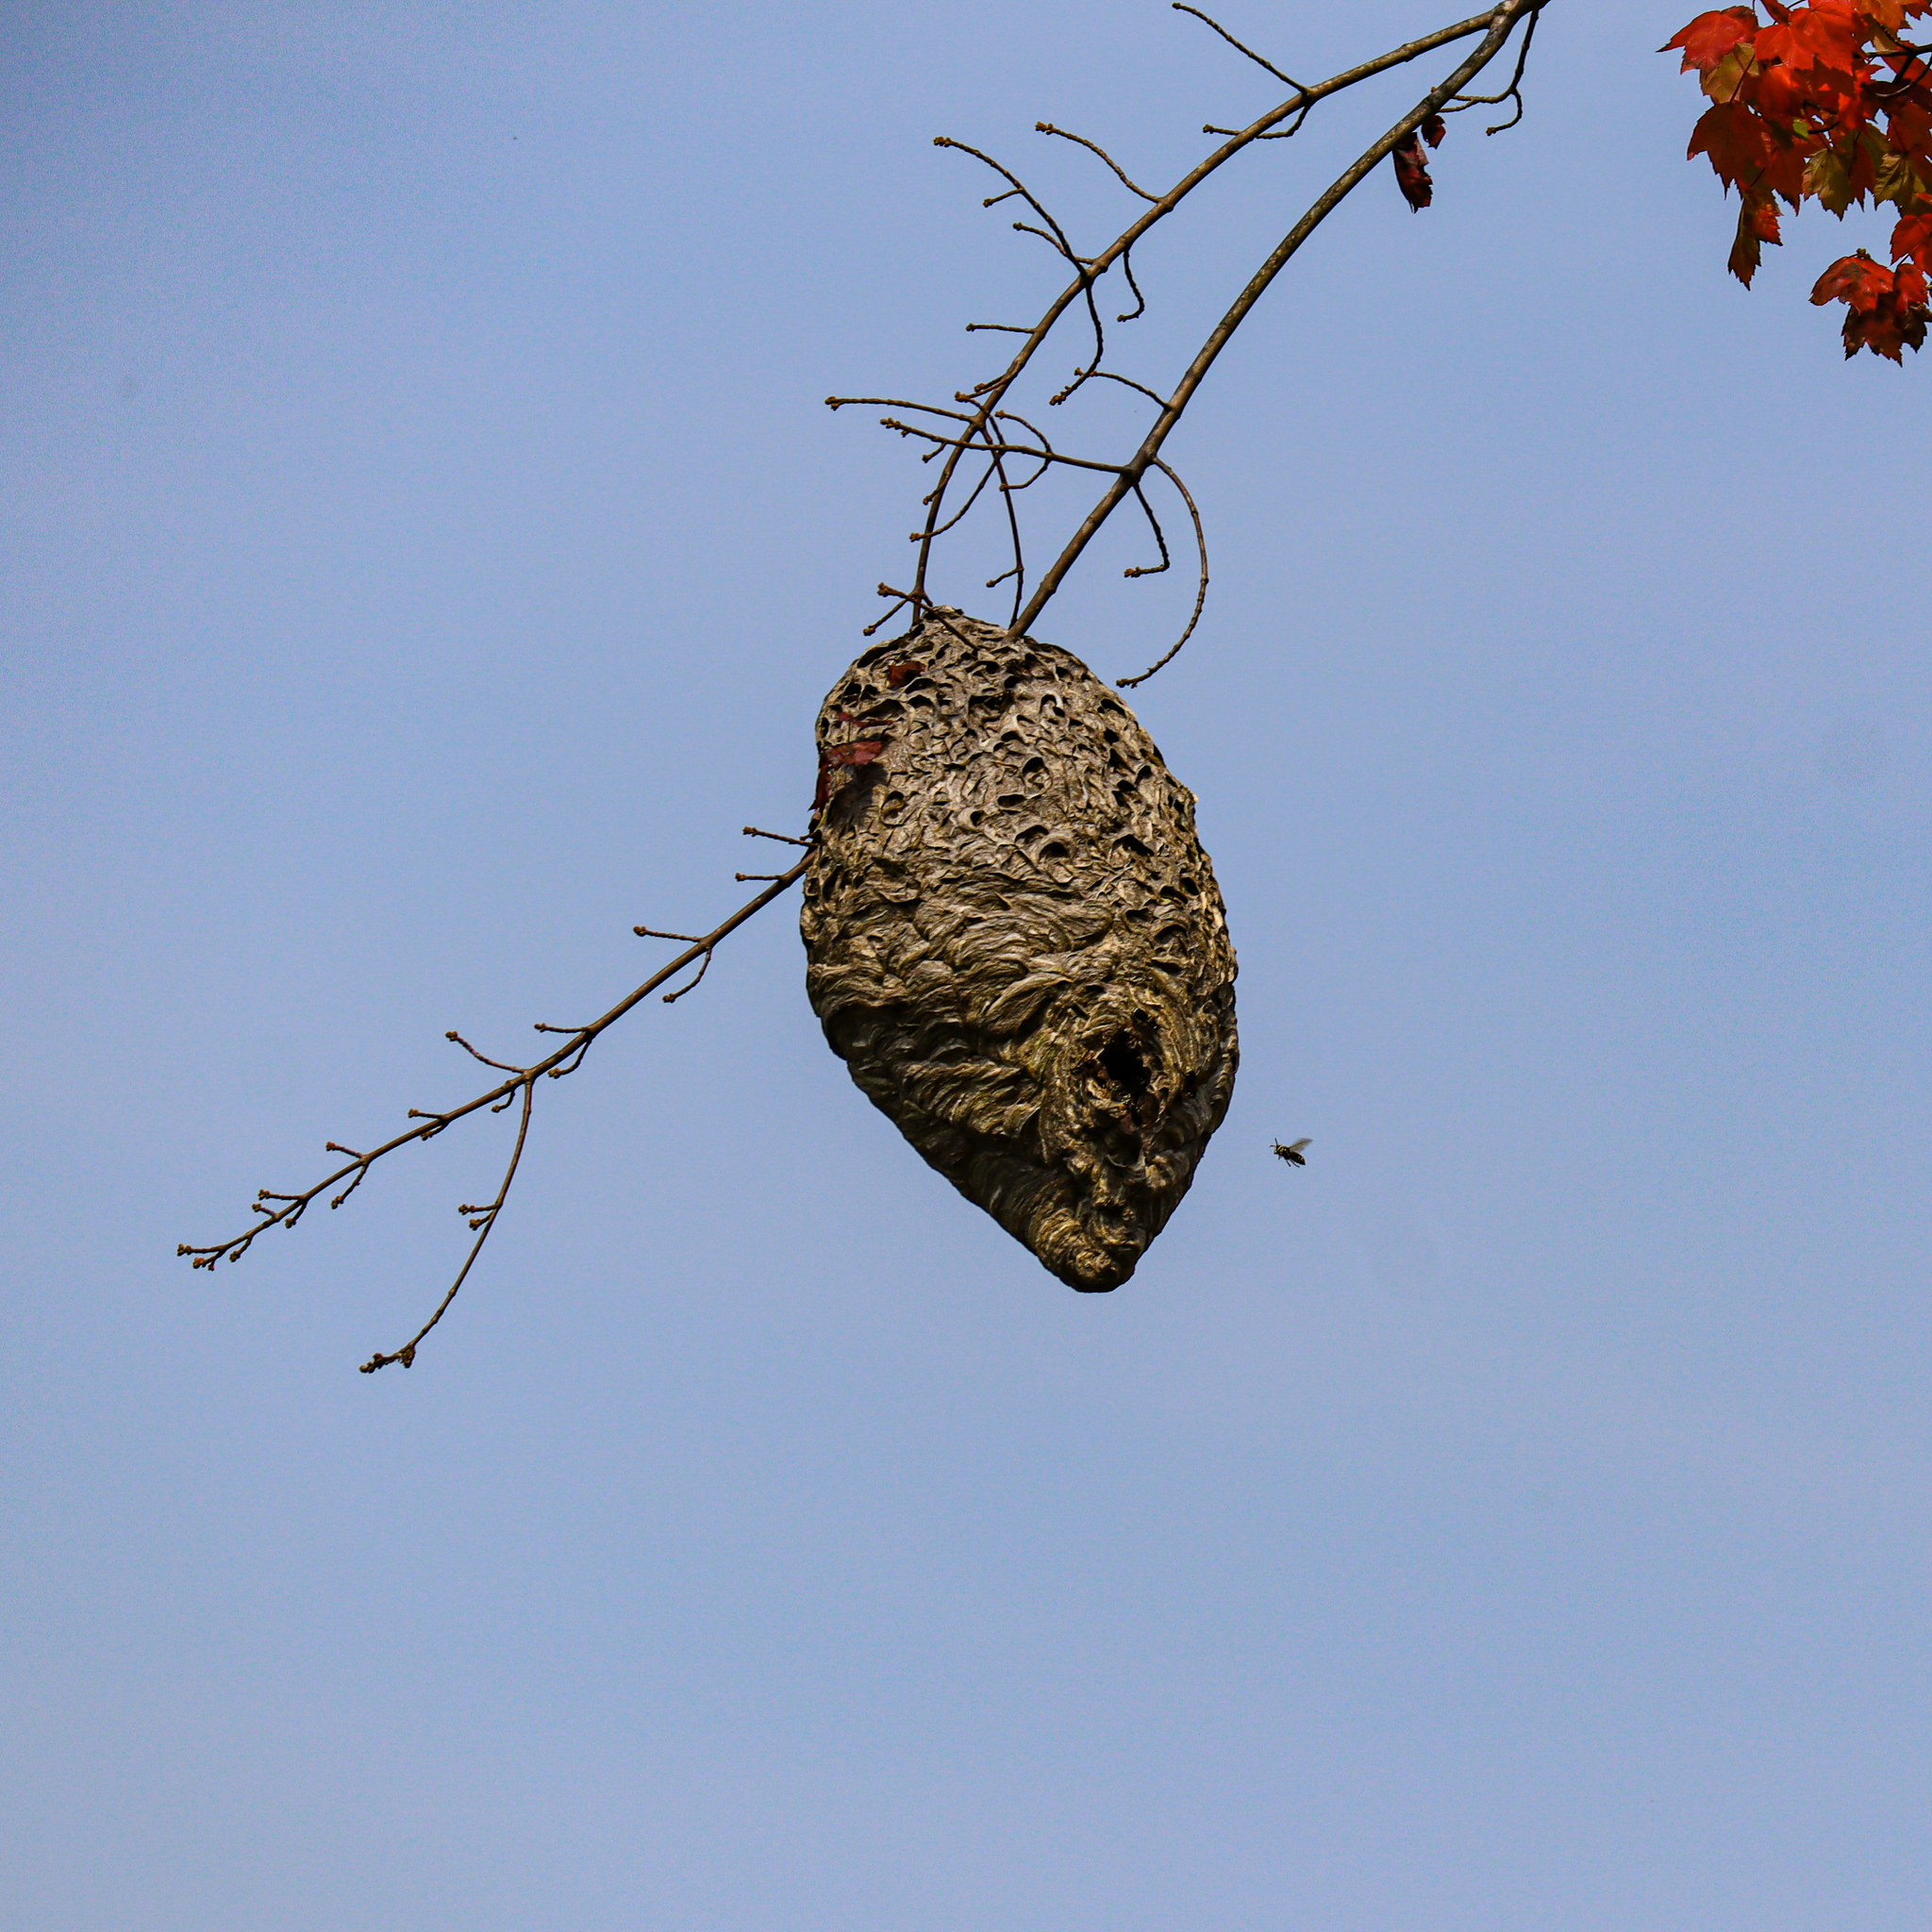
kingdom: Animalia
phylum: Arthropoda
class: Insecta
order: Hymenoptera
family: Vespidae
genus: Dolichovespula
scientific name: Dolichovespula maculata
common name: Bald-faced hornet
